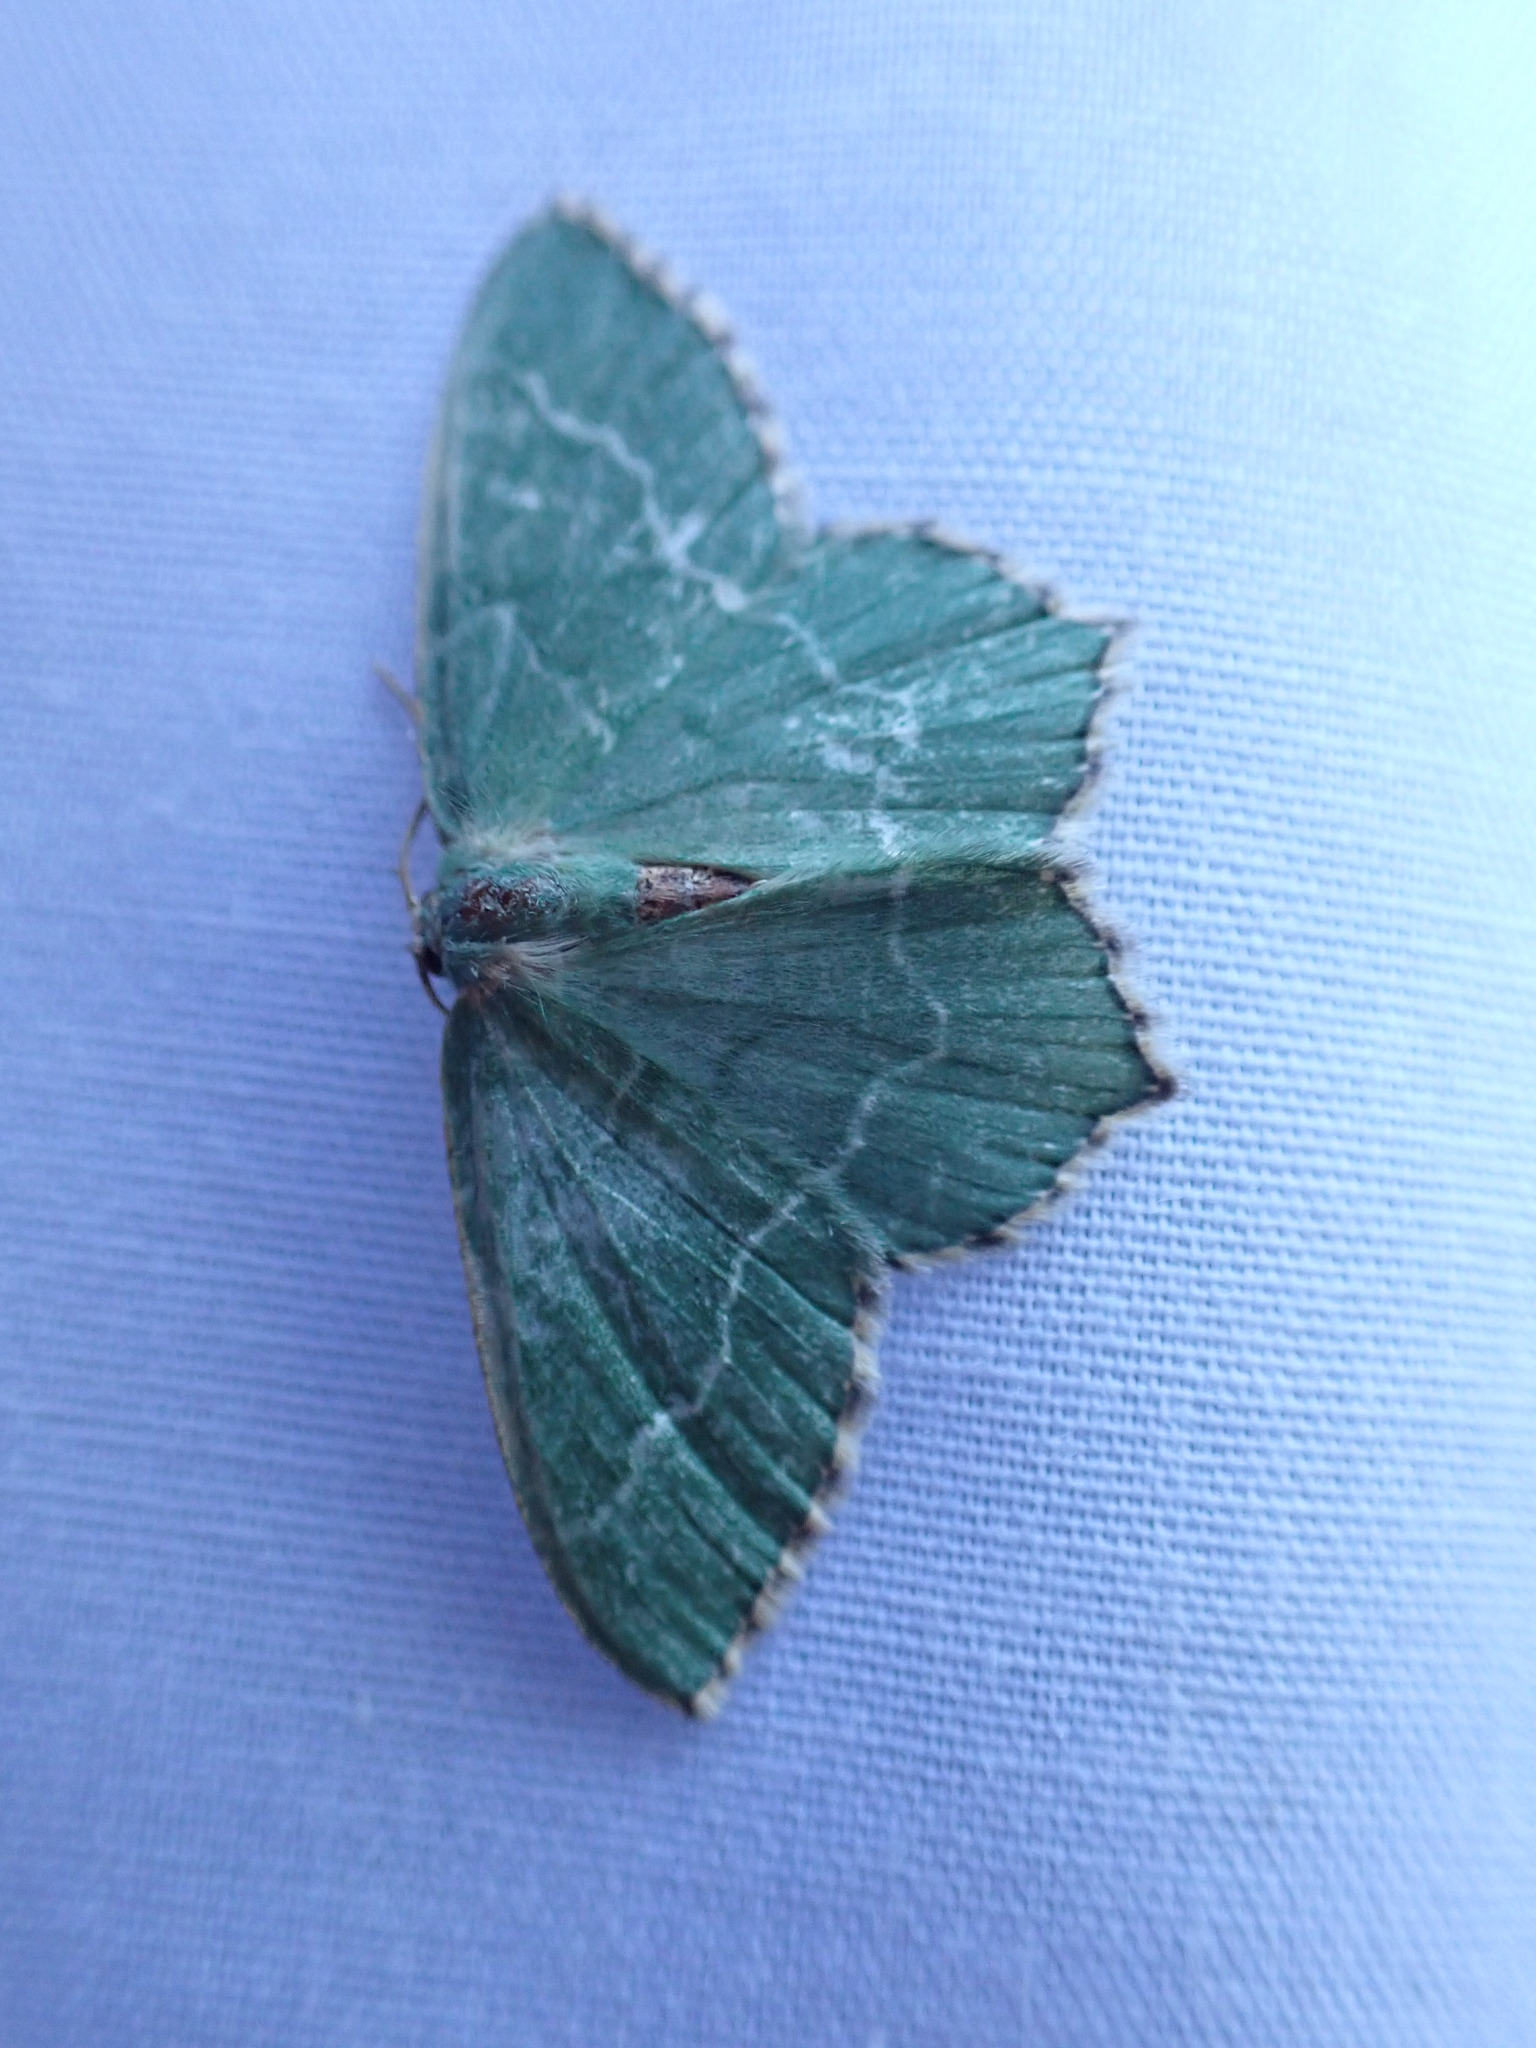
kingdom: Animalia
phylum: Arthropoda
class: Insecta
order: Lepidoptera
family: Geometridae
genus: Hemithea
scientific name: Hemithea aestivaria
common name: Common emerald
